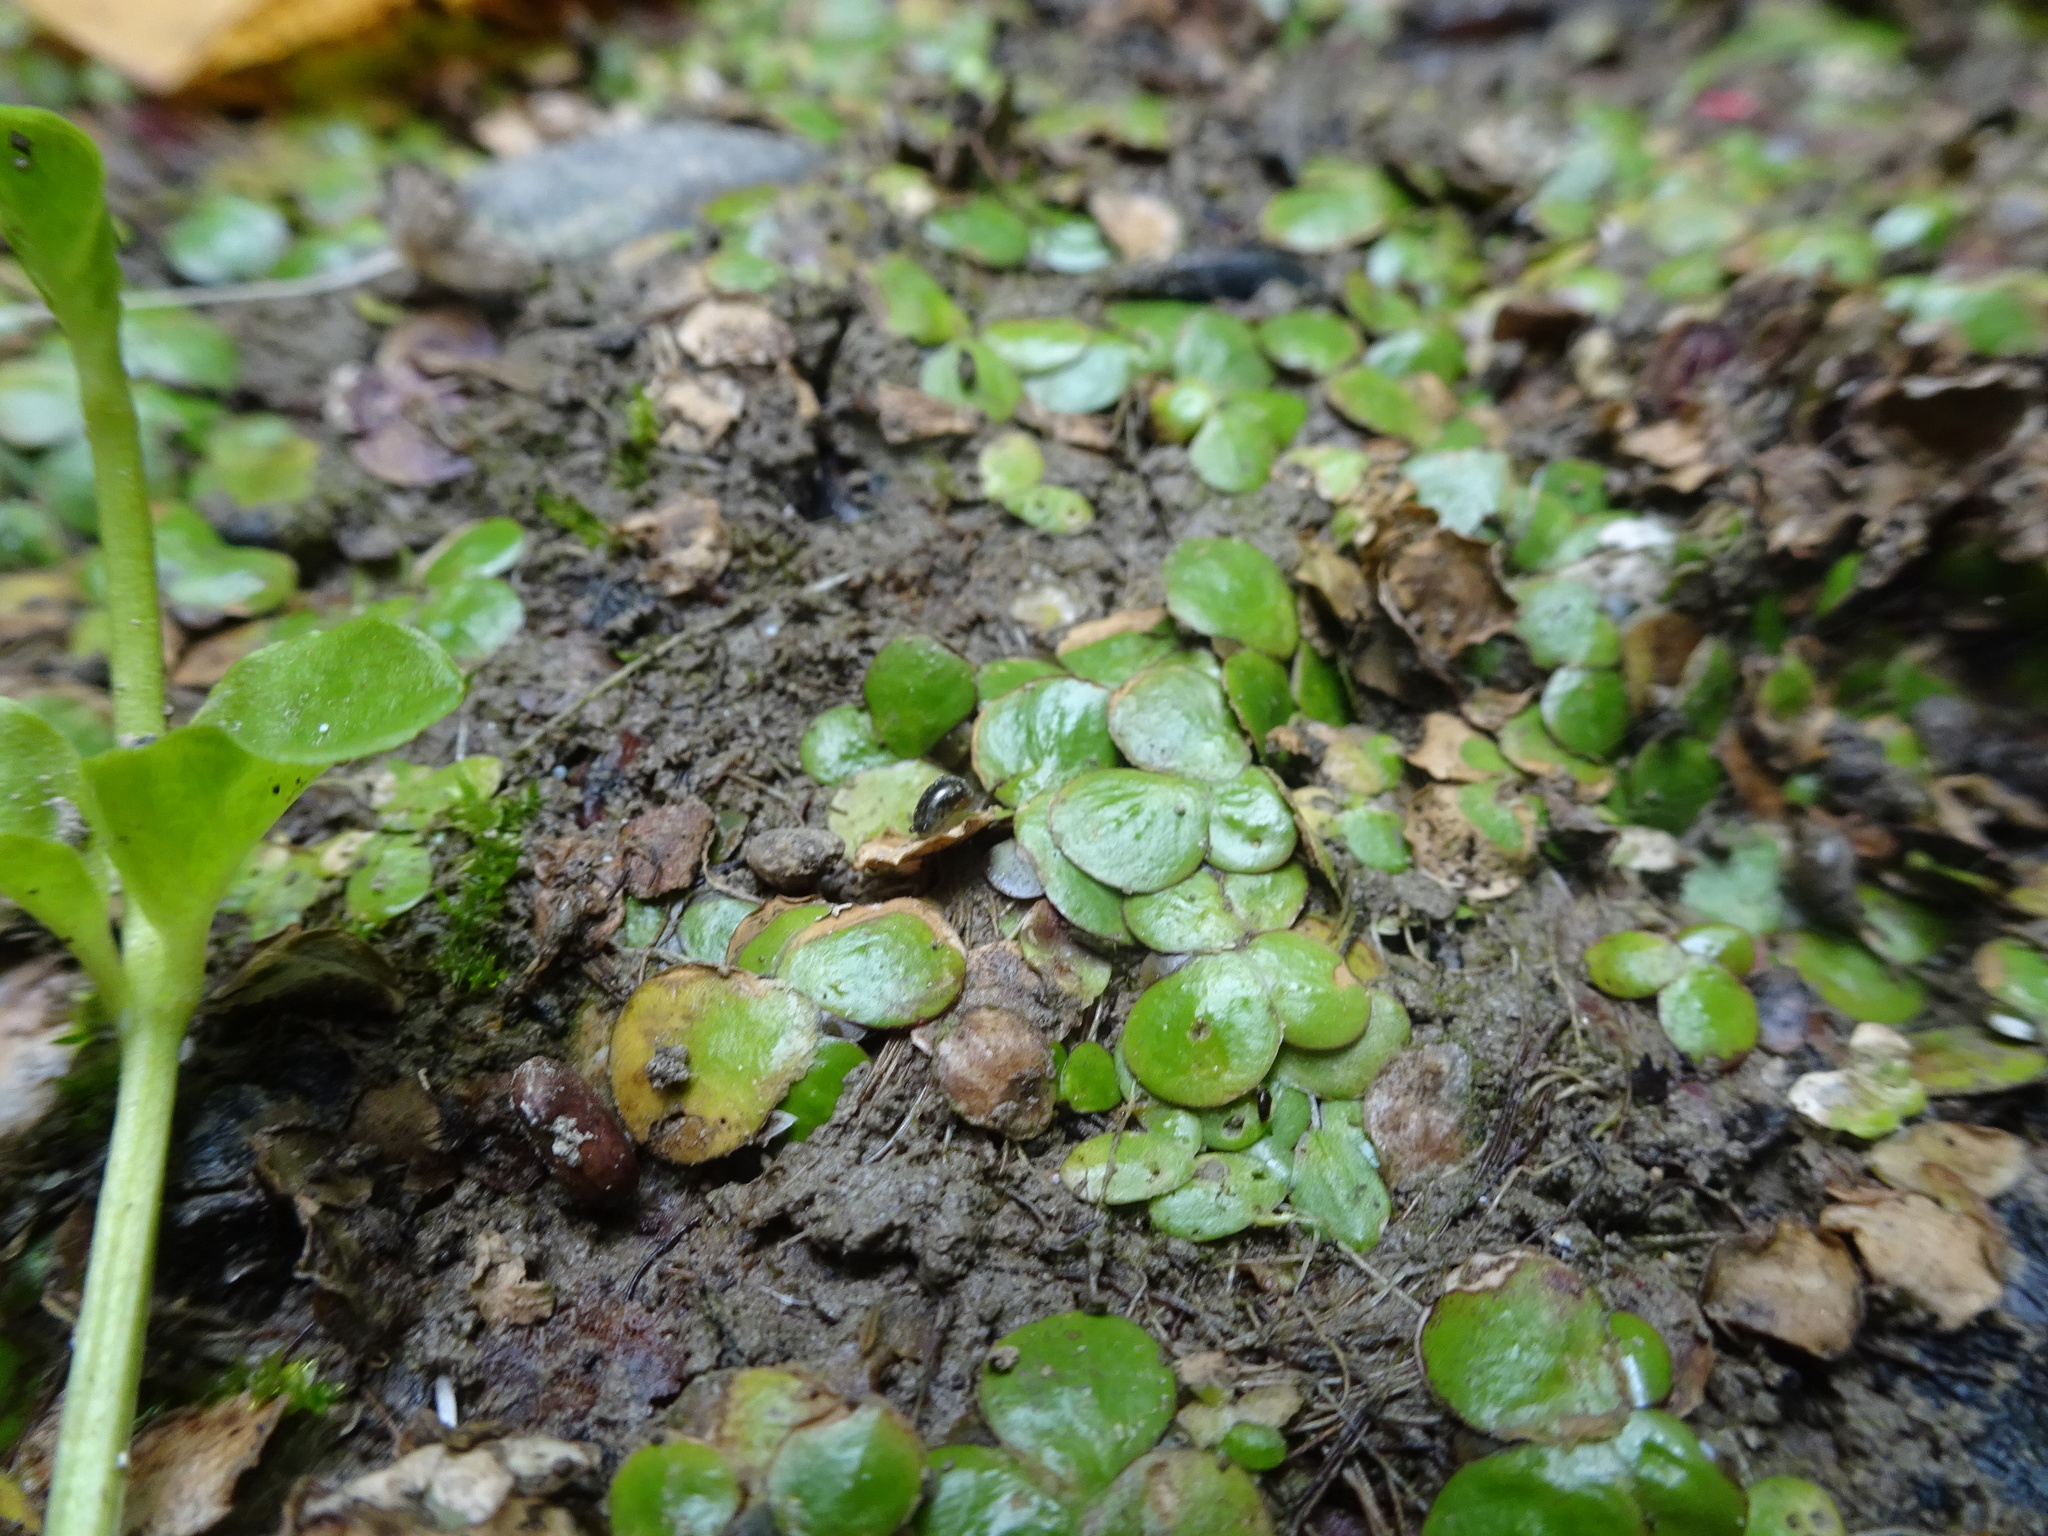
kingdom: Plantae
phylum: Tracheophyta
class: Liliopsida
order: Alismatales
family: Araceae
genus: Spirodela
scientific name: Spirodela polyrhiza
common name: Great duckweed
